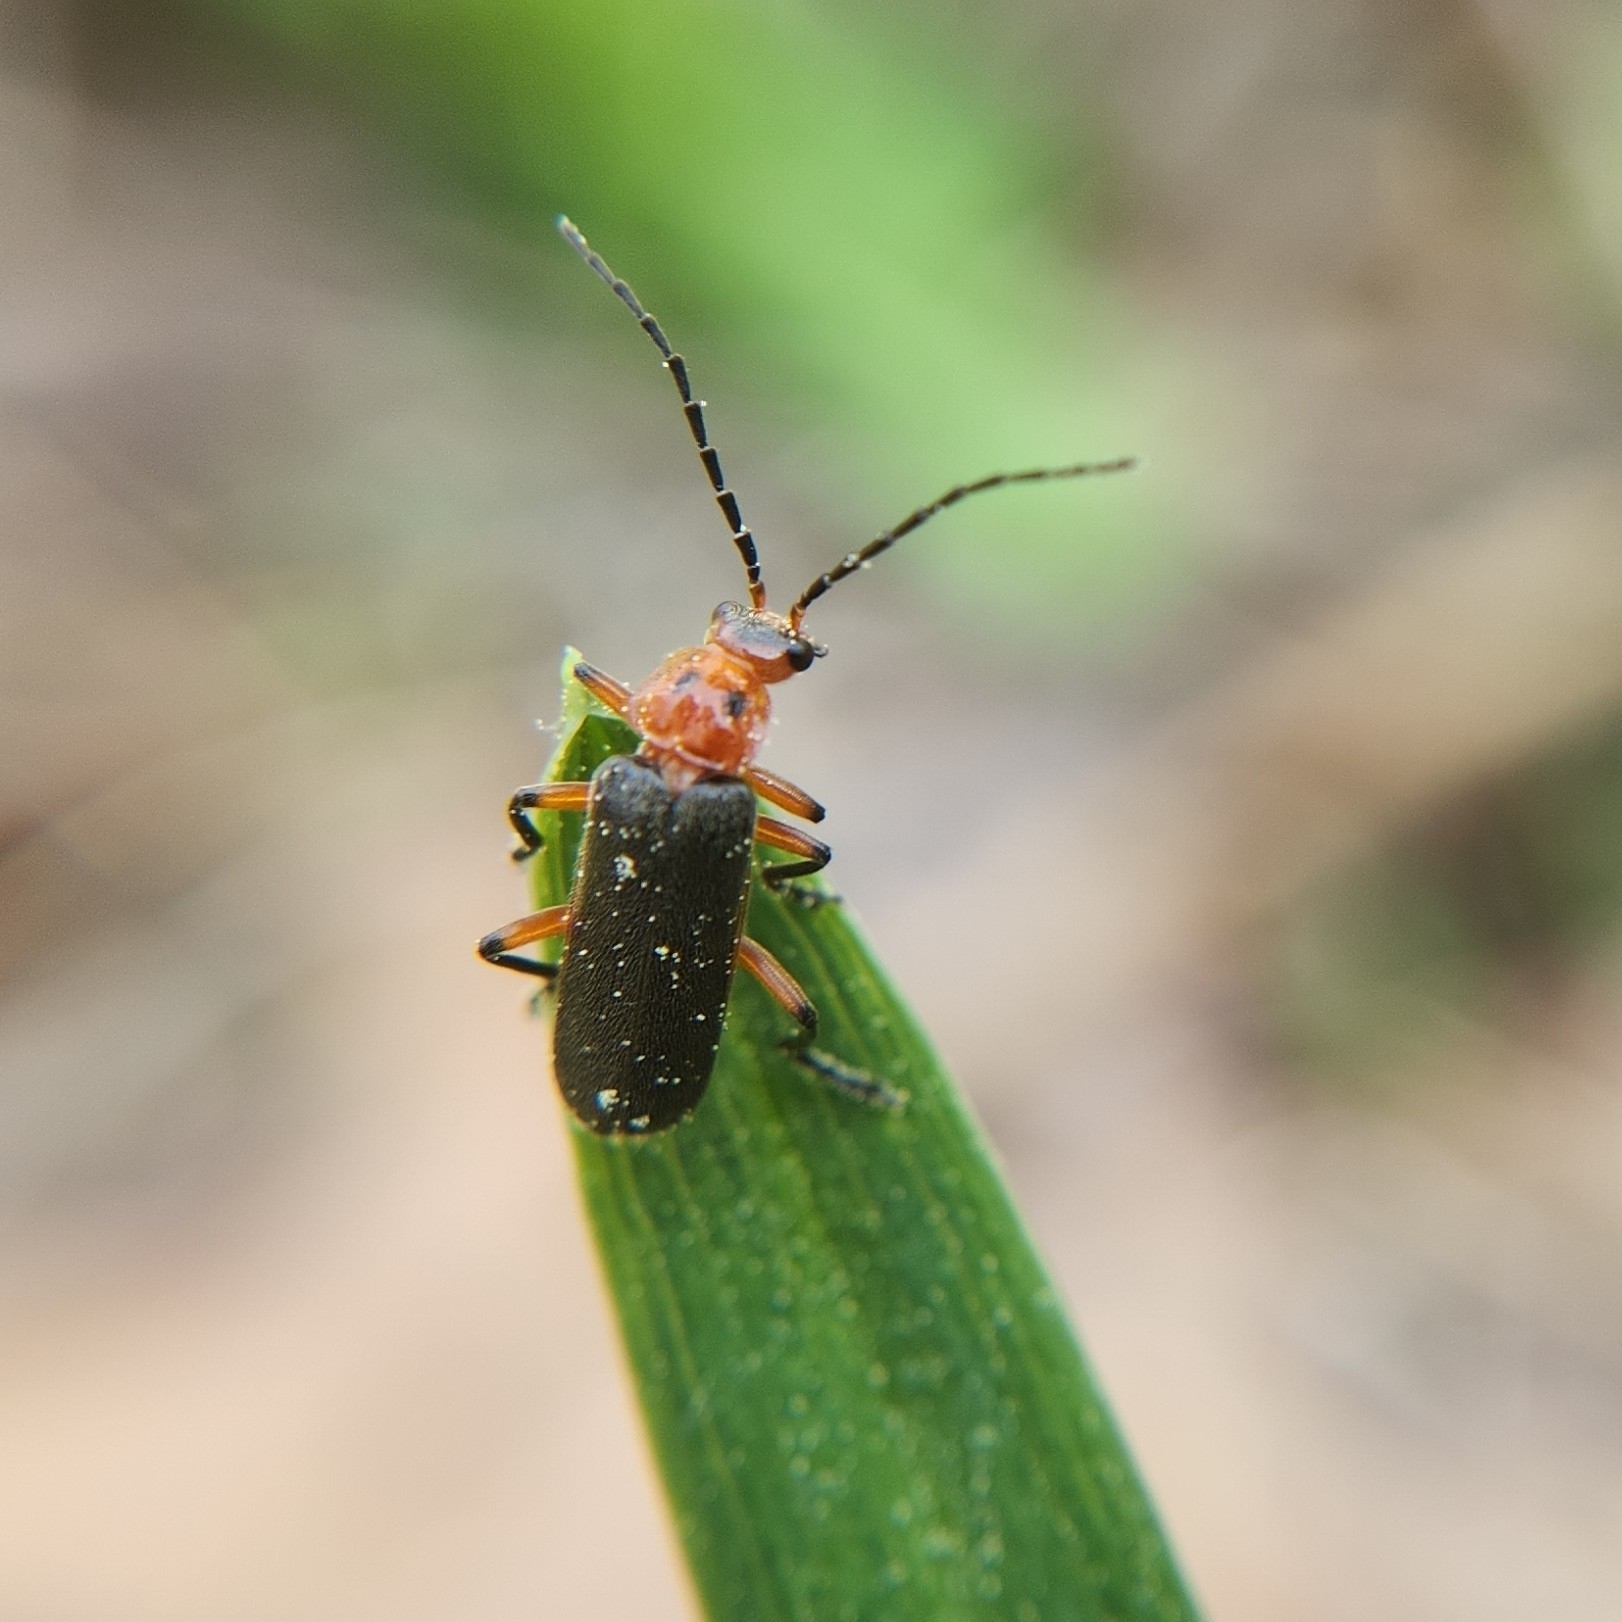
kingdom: Animalia
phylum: Arthropoda
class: Insecta
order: Coleoptera
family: Cantharidae
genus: Atalantycha
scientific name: Atalantycha bilineata
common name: Two-lined leatherwing
